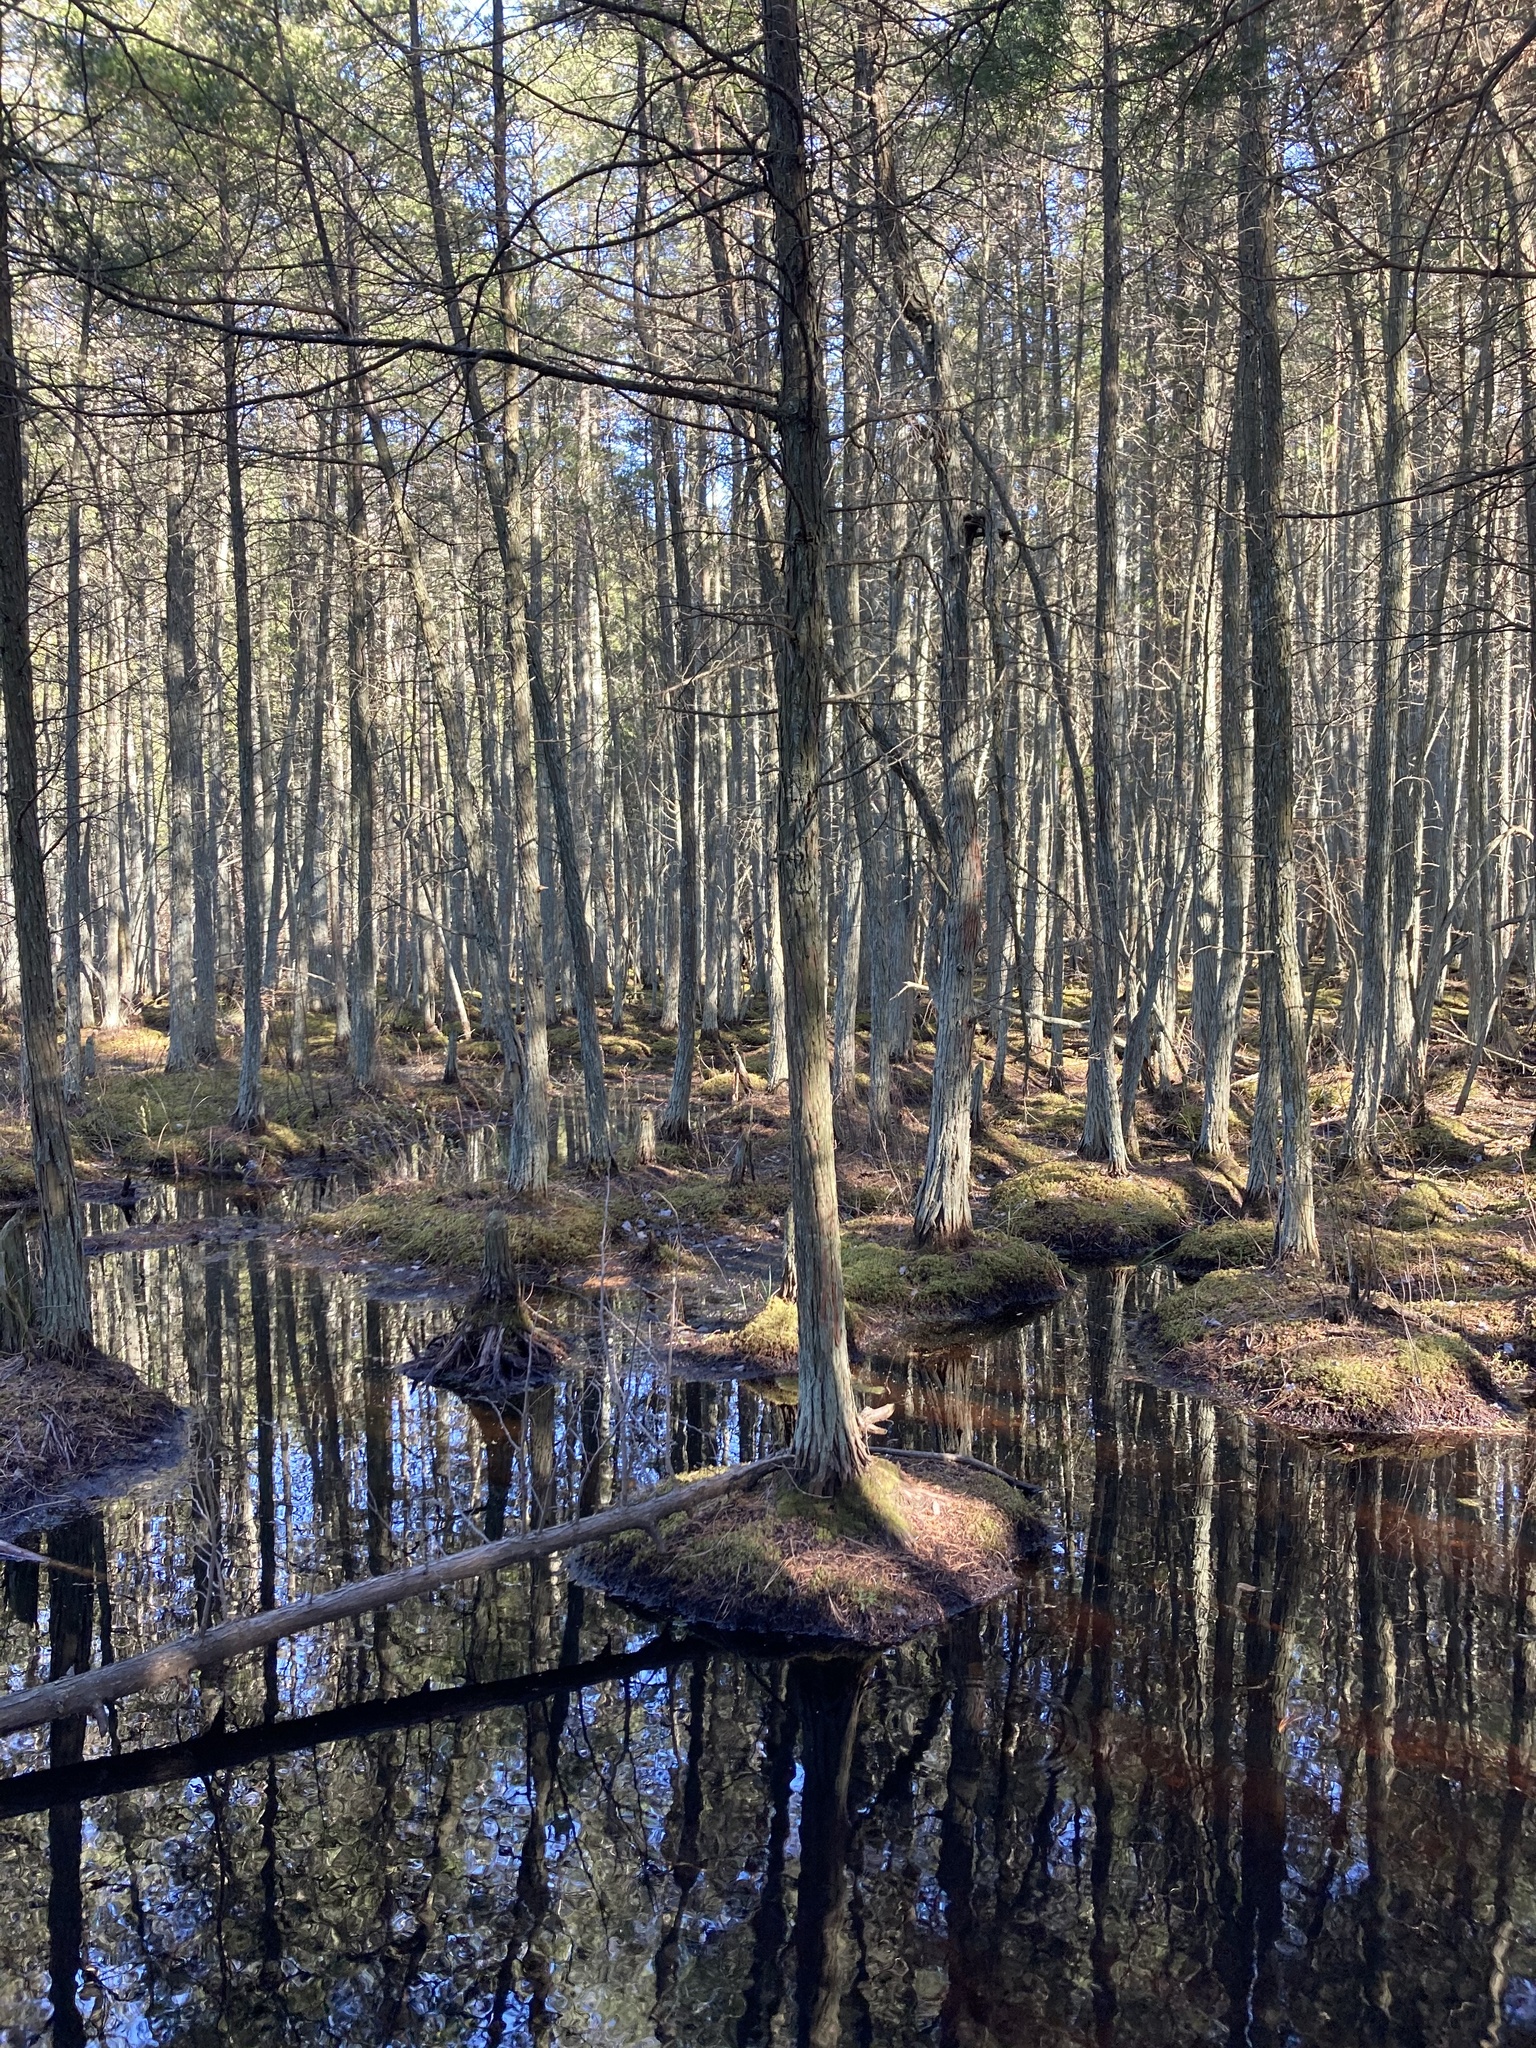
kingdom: Plantae
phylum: Tracheophyta
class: Pinopsida
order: Pinales
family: Cupressaceae
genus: Chamaecyparis
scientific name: Chamaecyparis thyoides
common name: Atlantic white cedar
